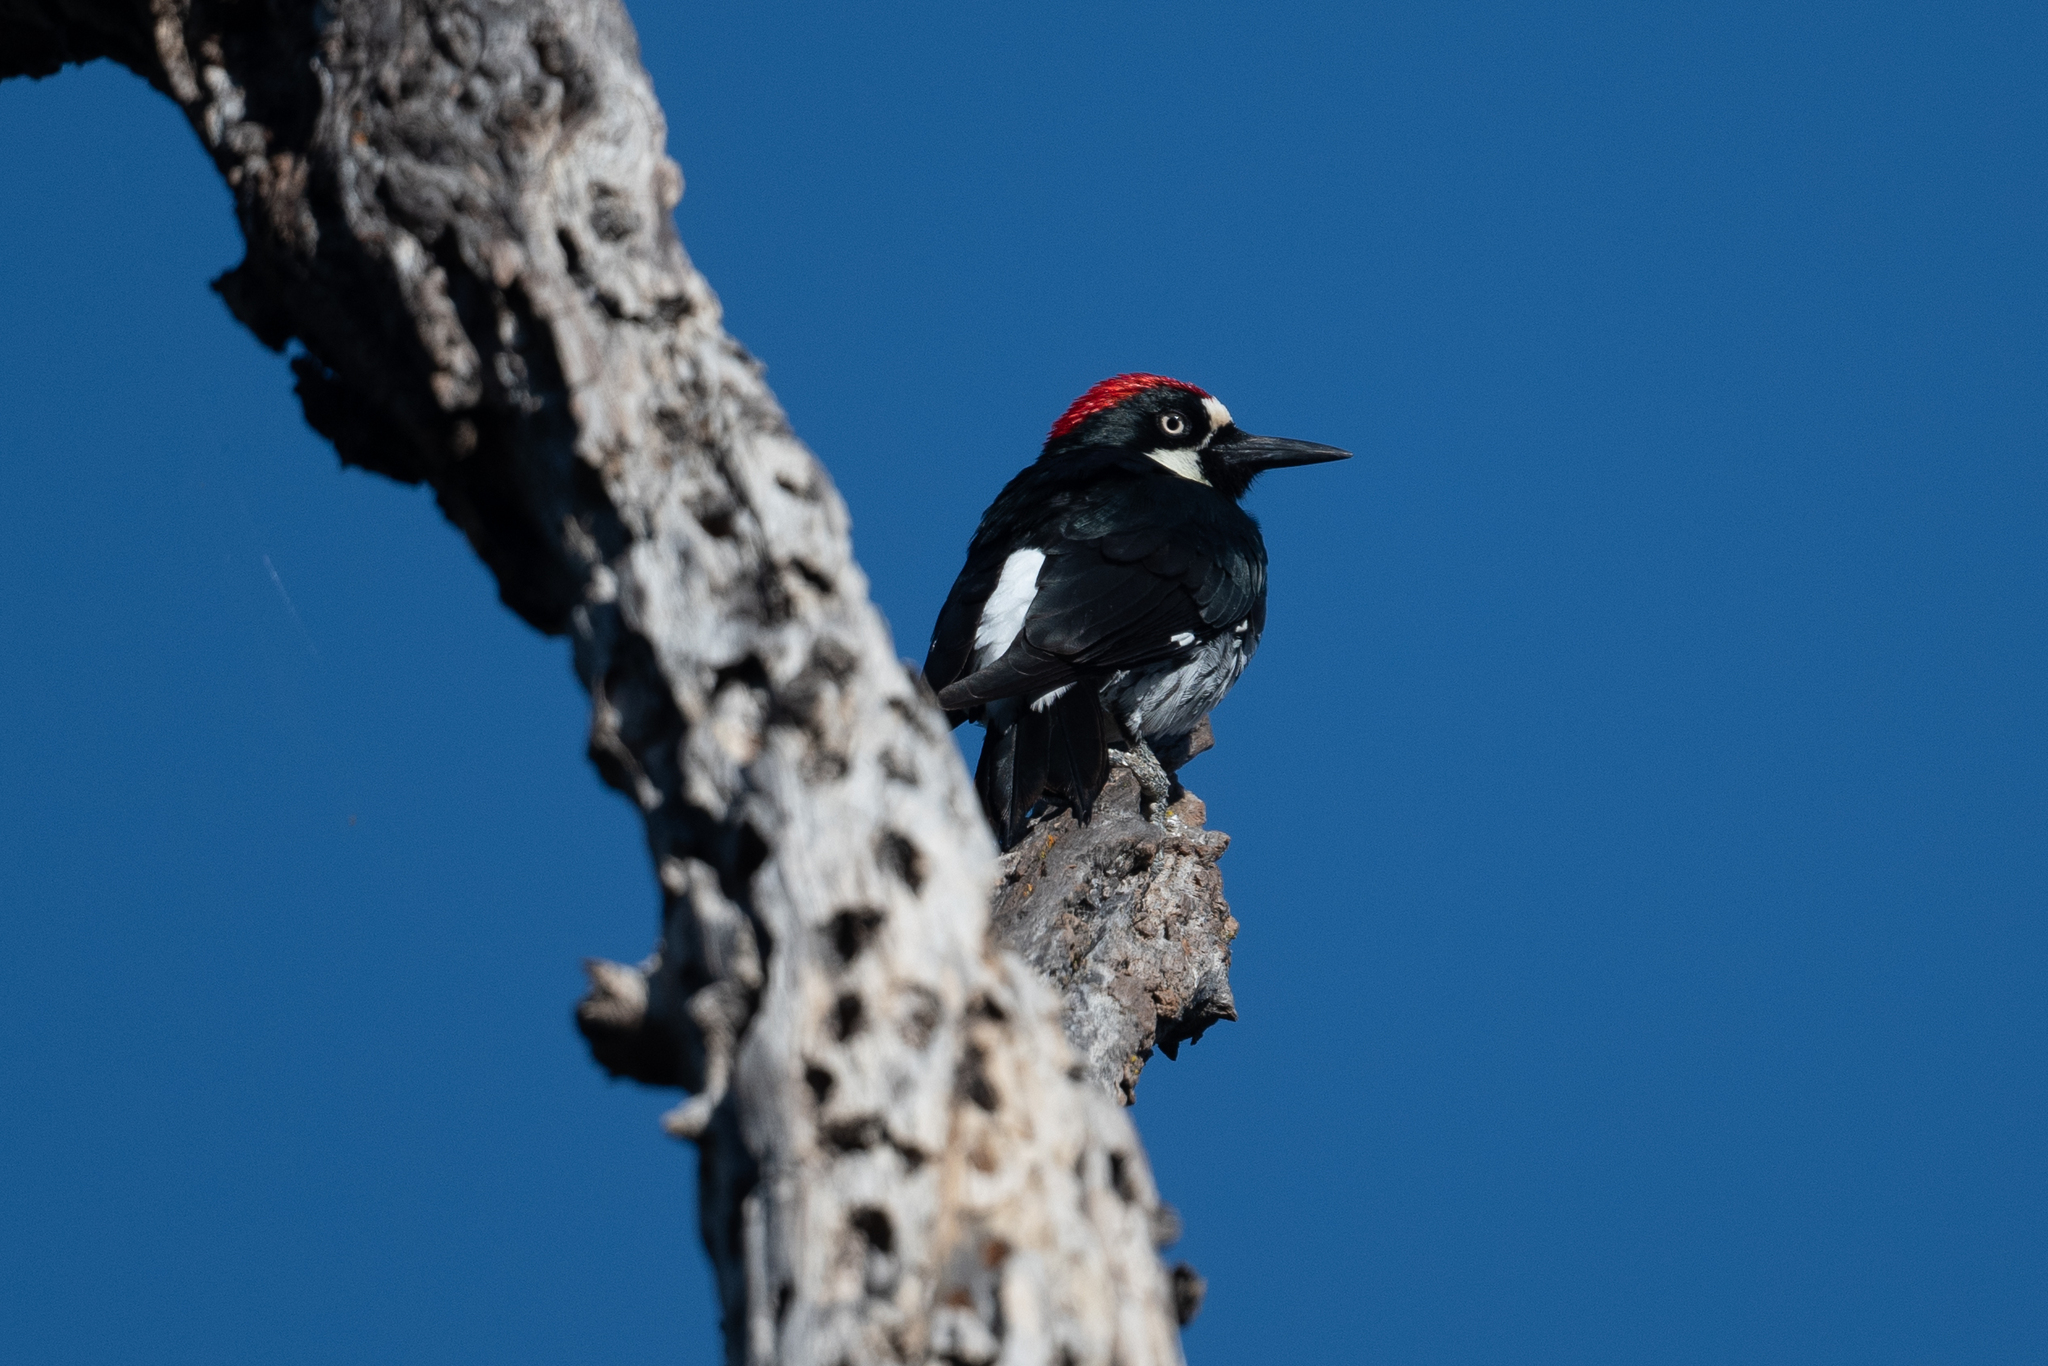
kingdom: Animalia
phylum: Chordata
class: Aves
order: Piciformes
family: Picidae
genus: Melanerpes
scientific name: Melanerpes formicivorus
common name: Acorn woodpecker
